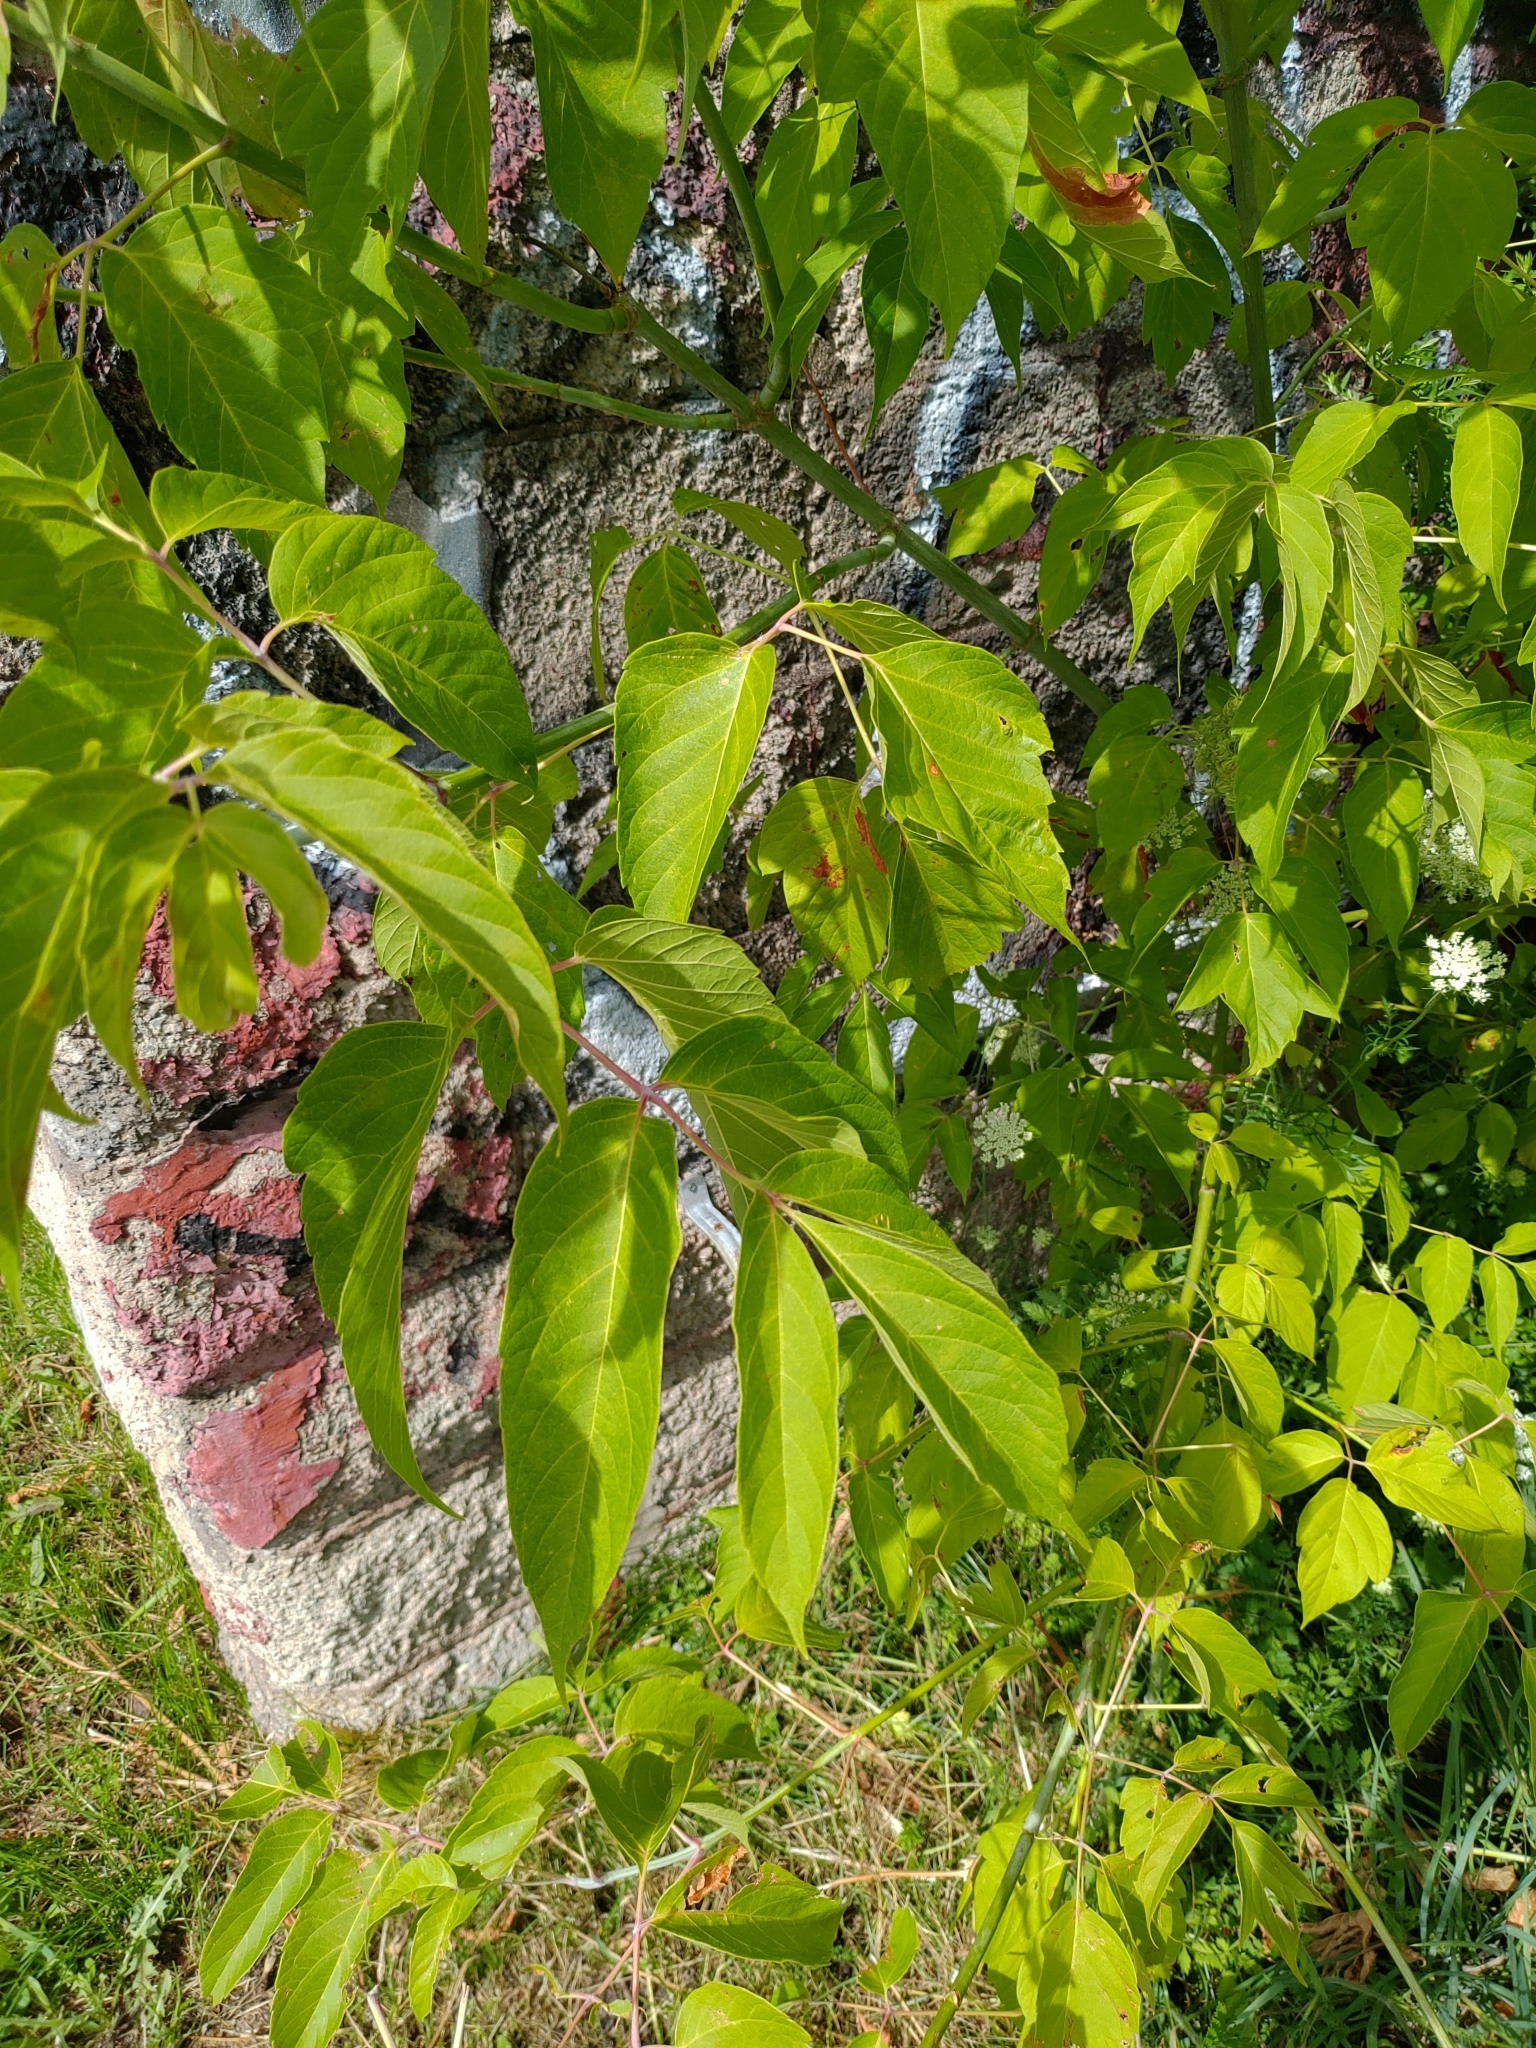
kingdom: Plantae
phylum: Tracheophyta
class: Magnoliopsida
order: Sapindales
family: Sapindaceae
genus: Acer
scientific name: Acer negundo
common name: Ashleaf maple
